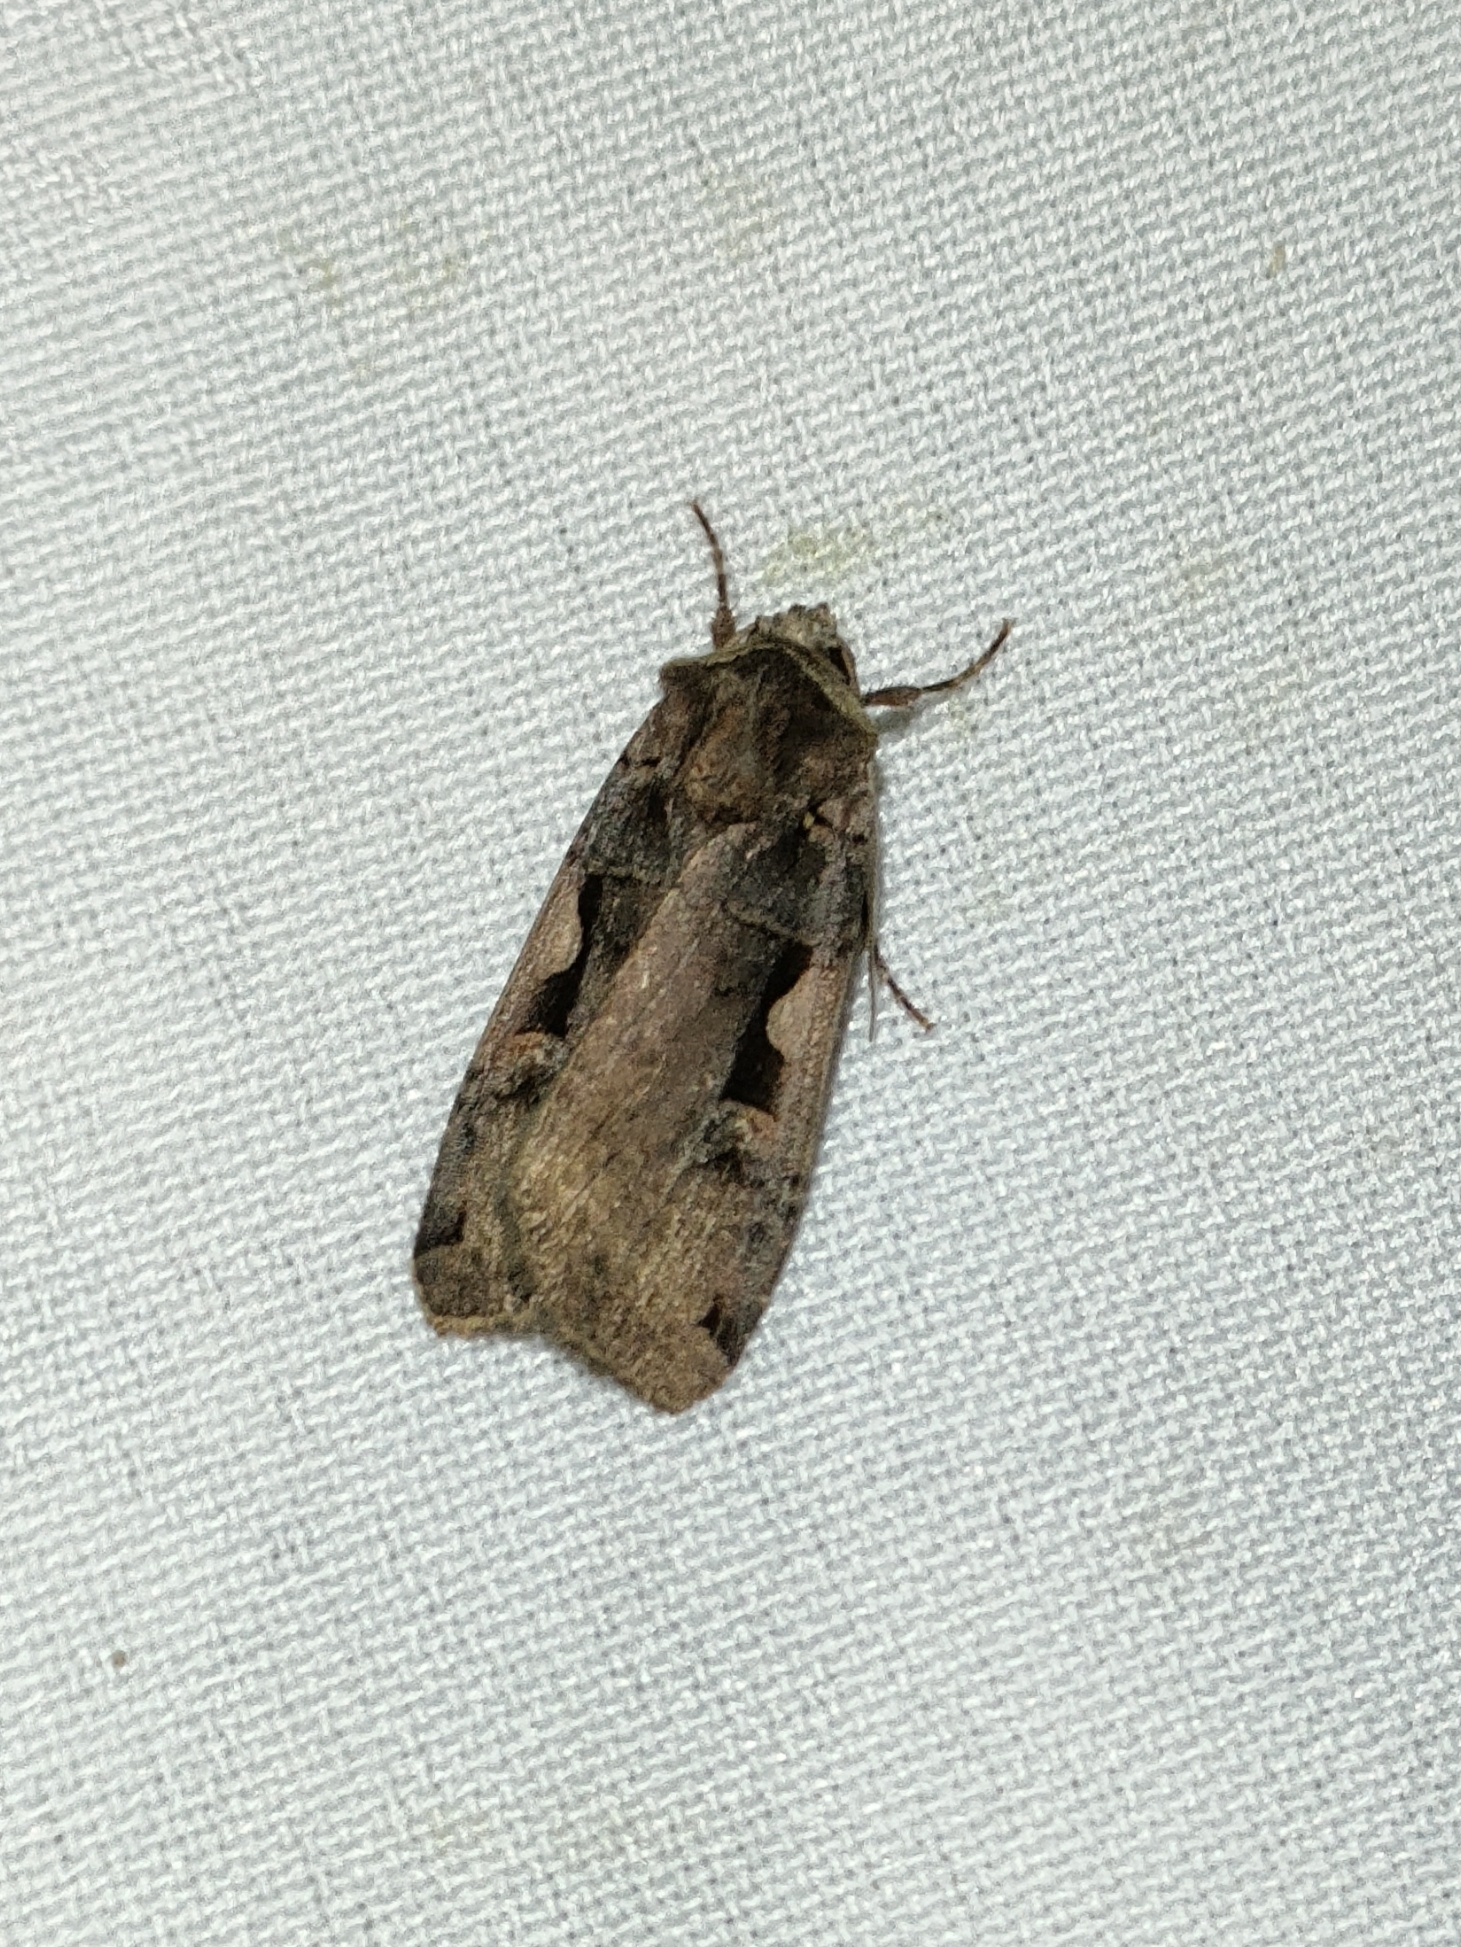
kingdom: Animalia
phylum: Arthropoda
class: Insecta
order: Lepidoptera
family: Noctuidae
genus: Xestia
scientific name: Xestia c-nigrum
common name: Setaceous hebrew character
